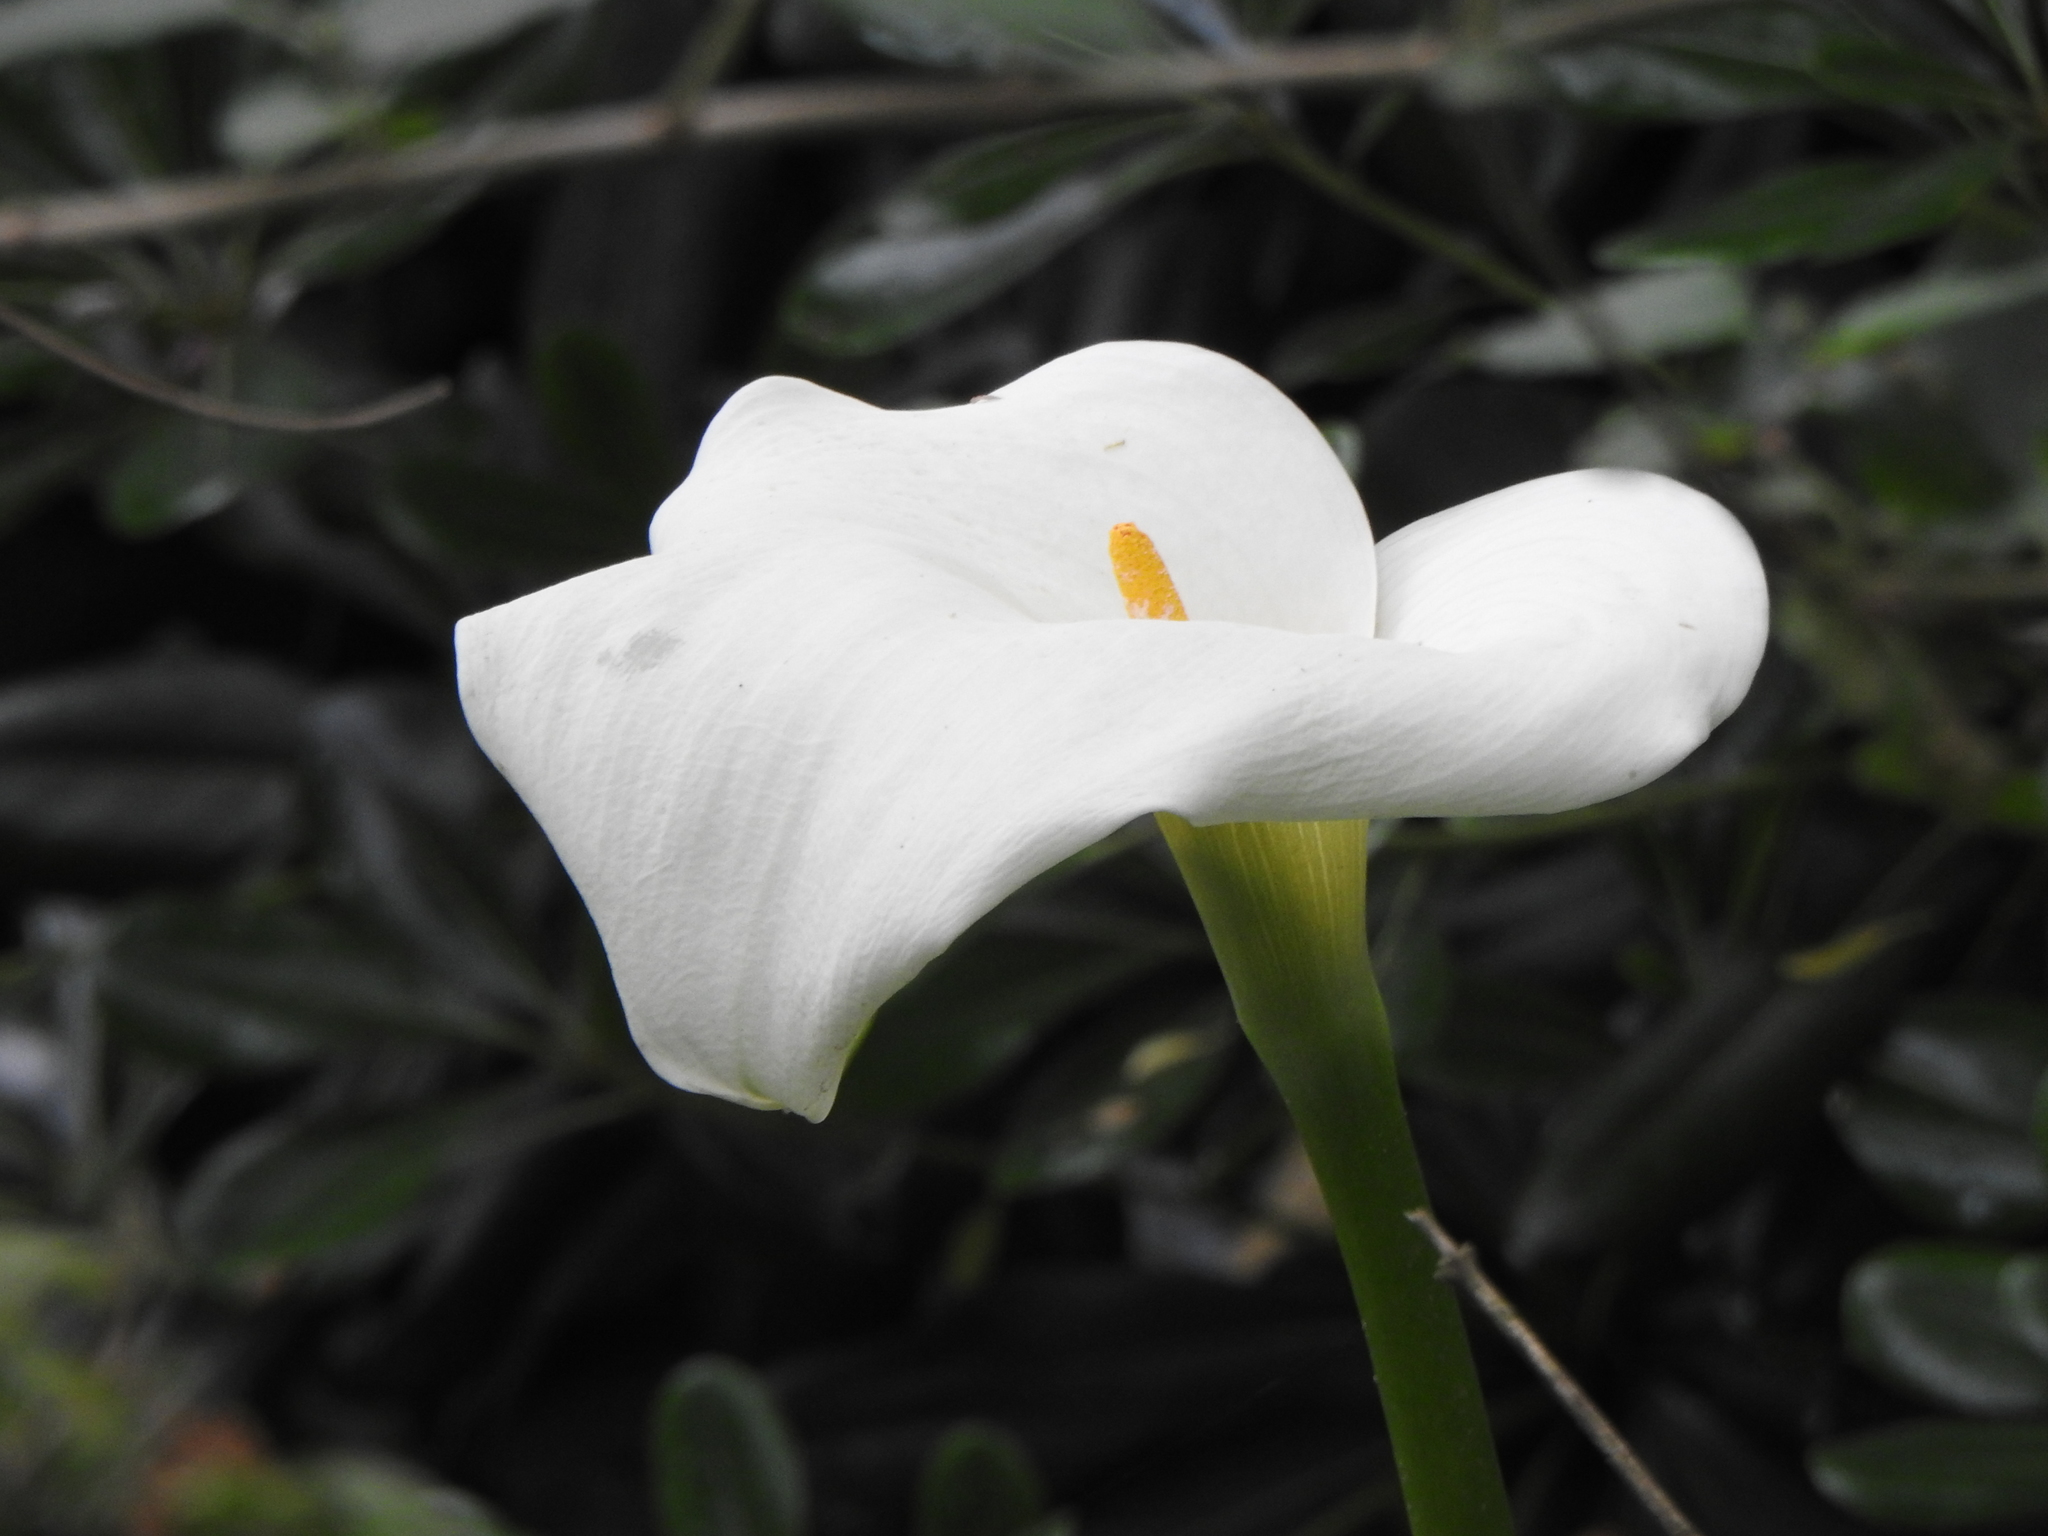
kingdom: Plantae
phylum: Tracheophyta
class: Liliopsida
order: Alismatales
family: Araceae
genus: Zantedeschia
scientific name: Zantedeschia aethiopica
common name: Altar-lily
